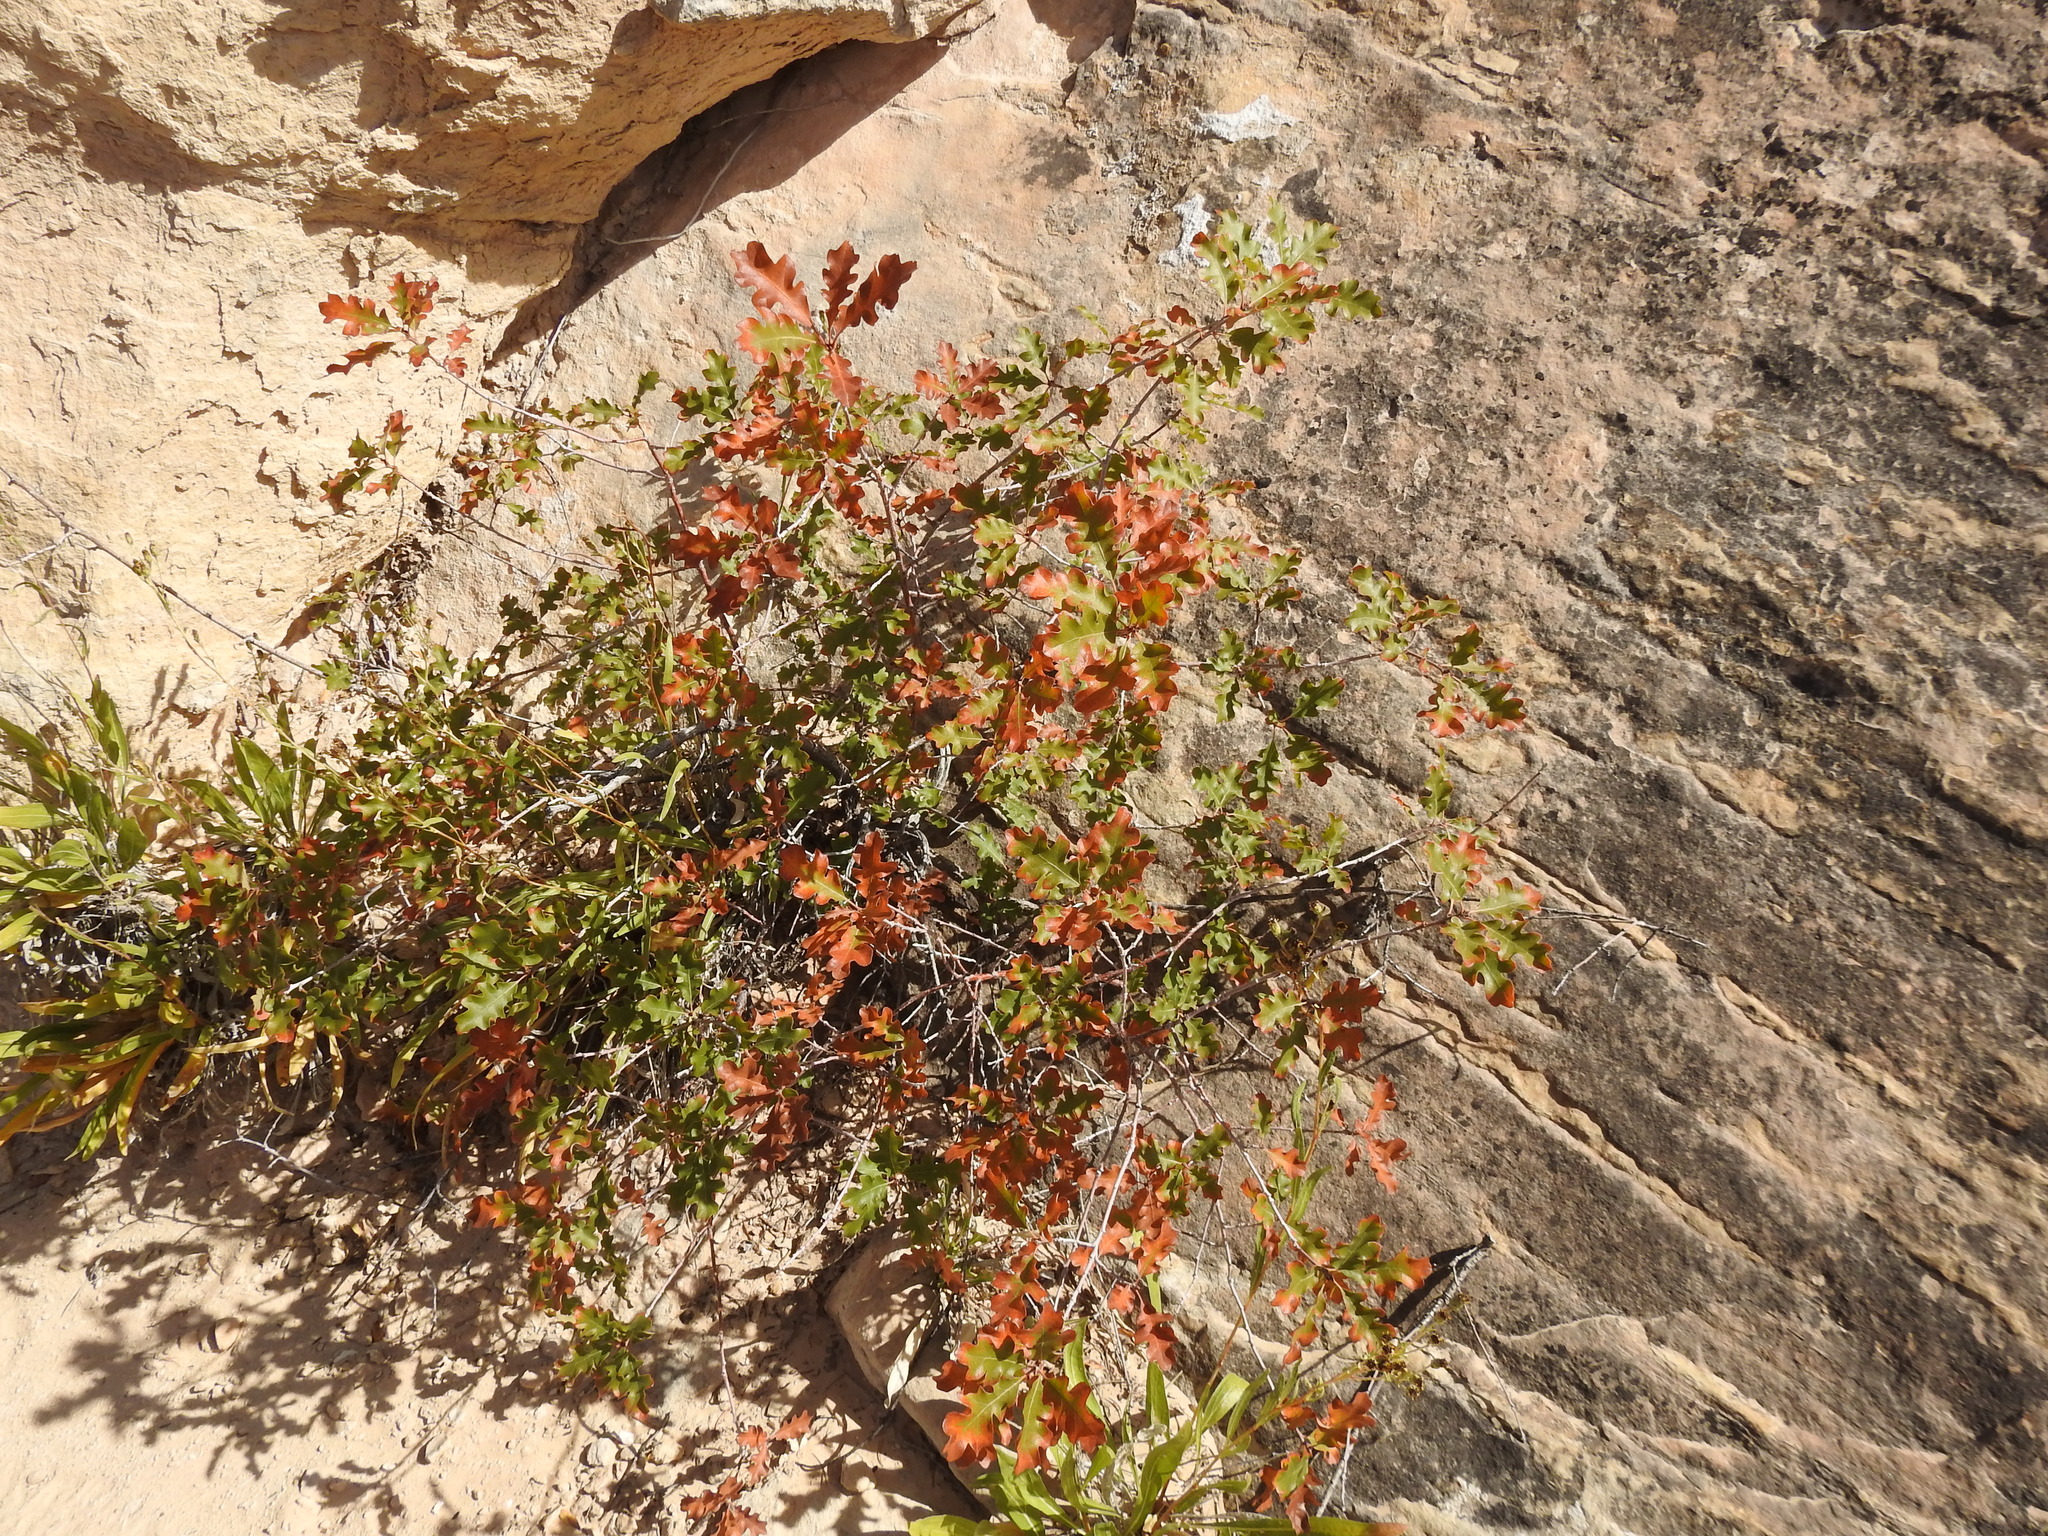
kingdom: Plantae
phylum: Tracheophyta
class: Magnoliopsida
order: Fagales
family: Fagaceae
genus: Quercus
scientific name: Quercus gambelii
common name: Gambel oak
